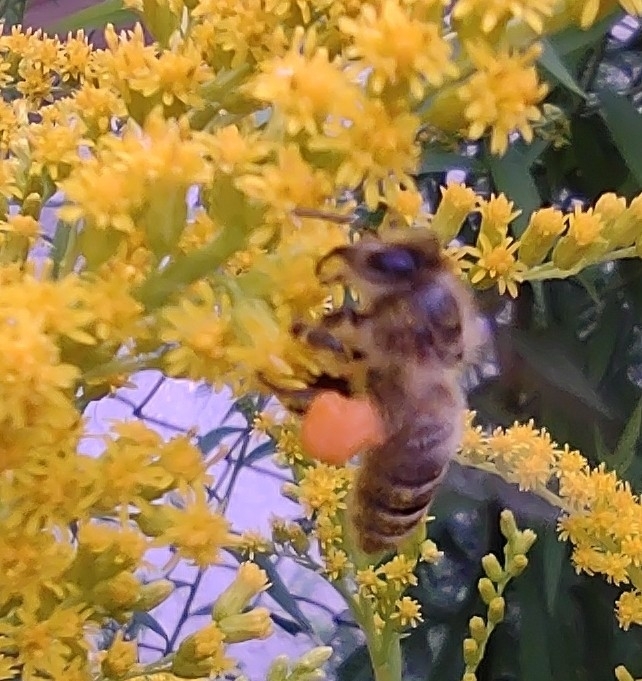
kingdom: Animalia
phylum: Arthropoda
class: Insecta
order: Hymenoptera
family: Apidae
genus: Apis
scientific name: Apis mellifera
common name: Honey bee
